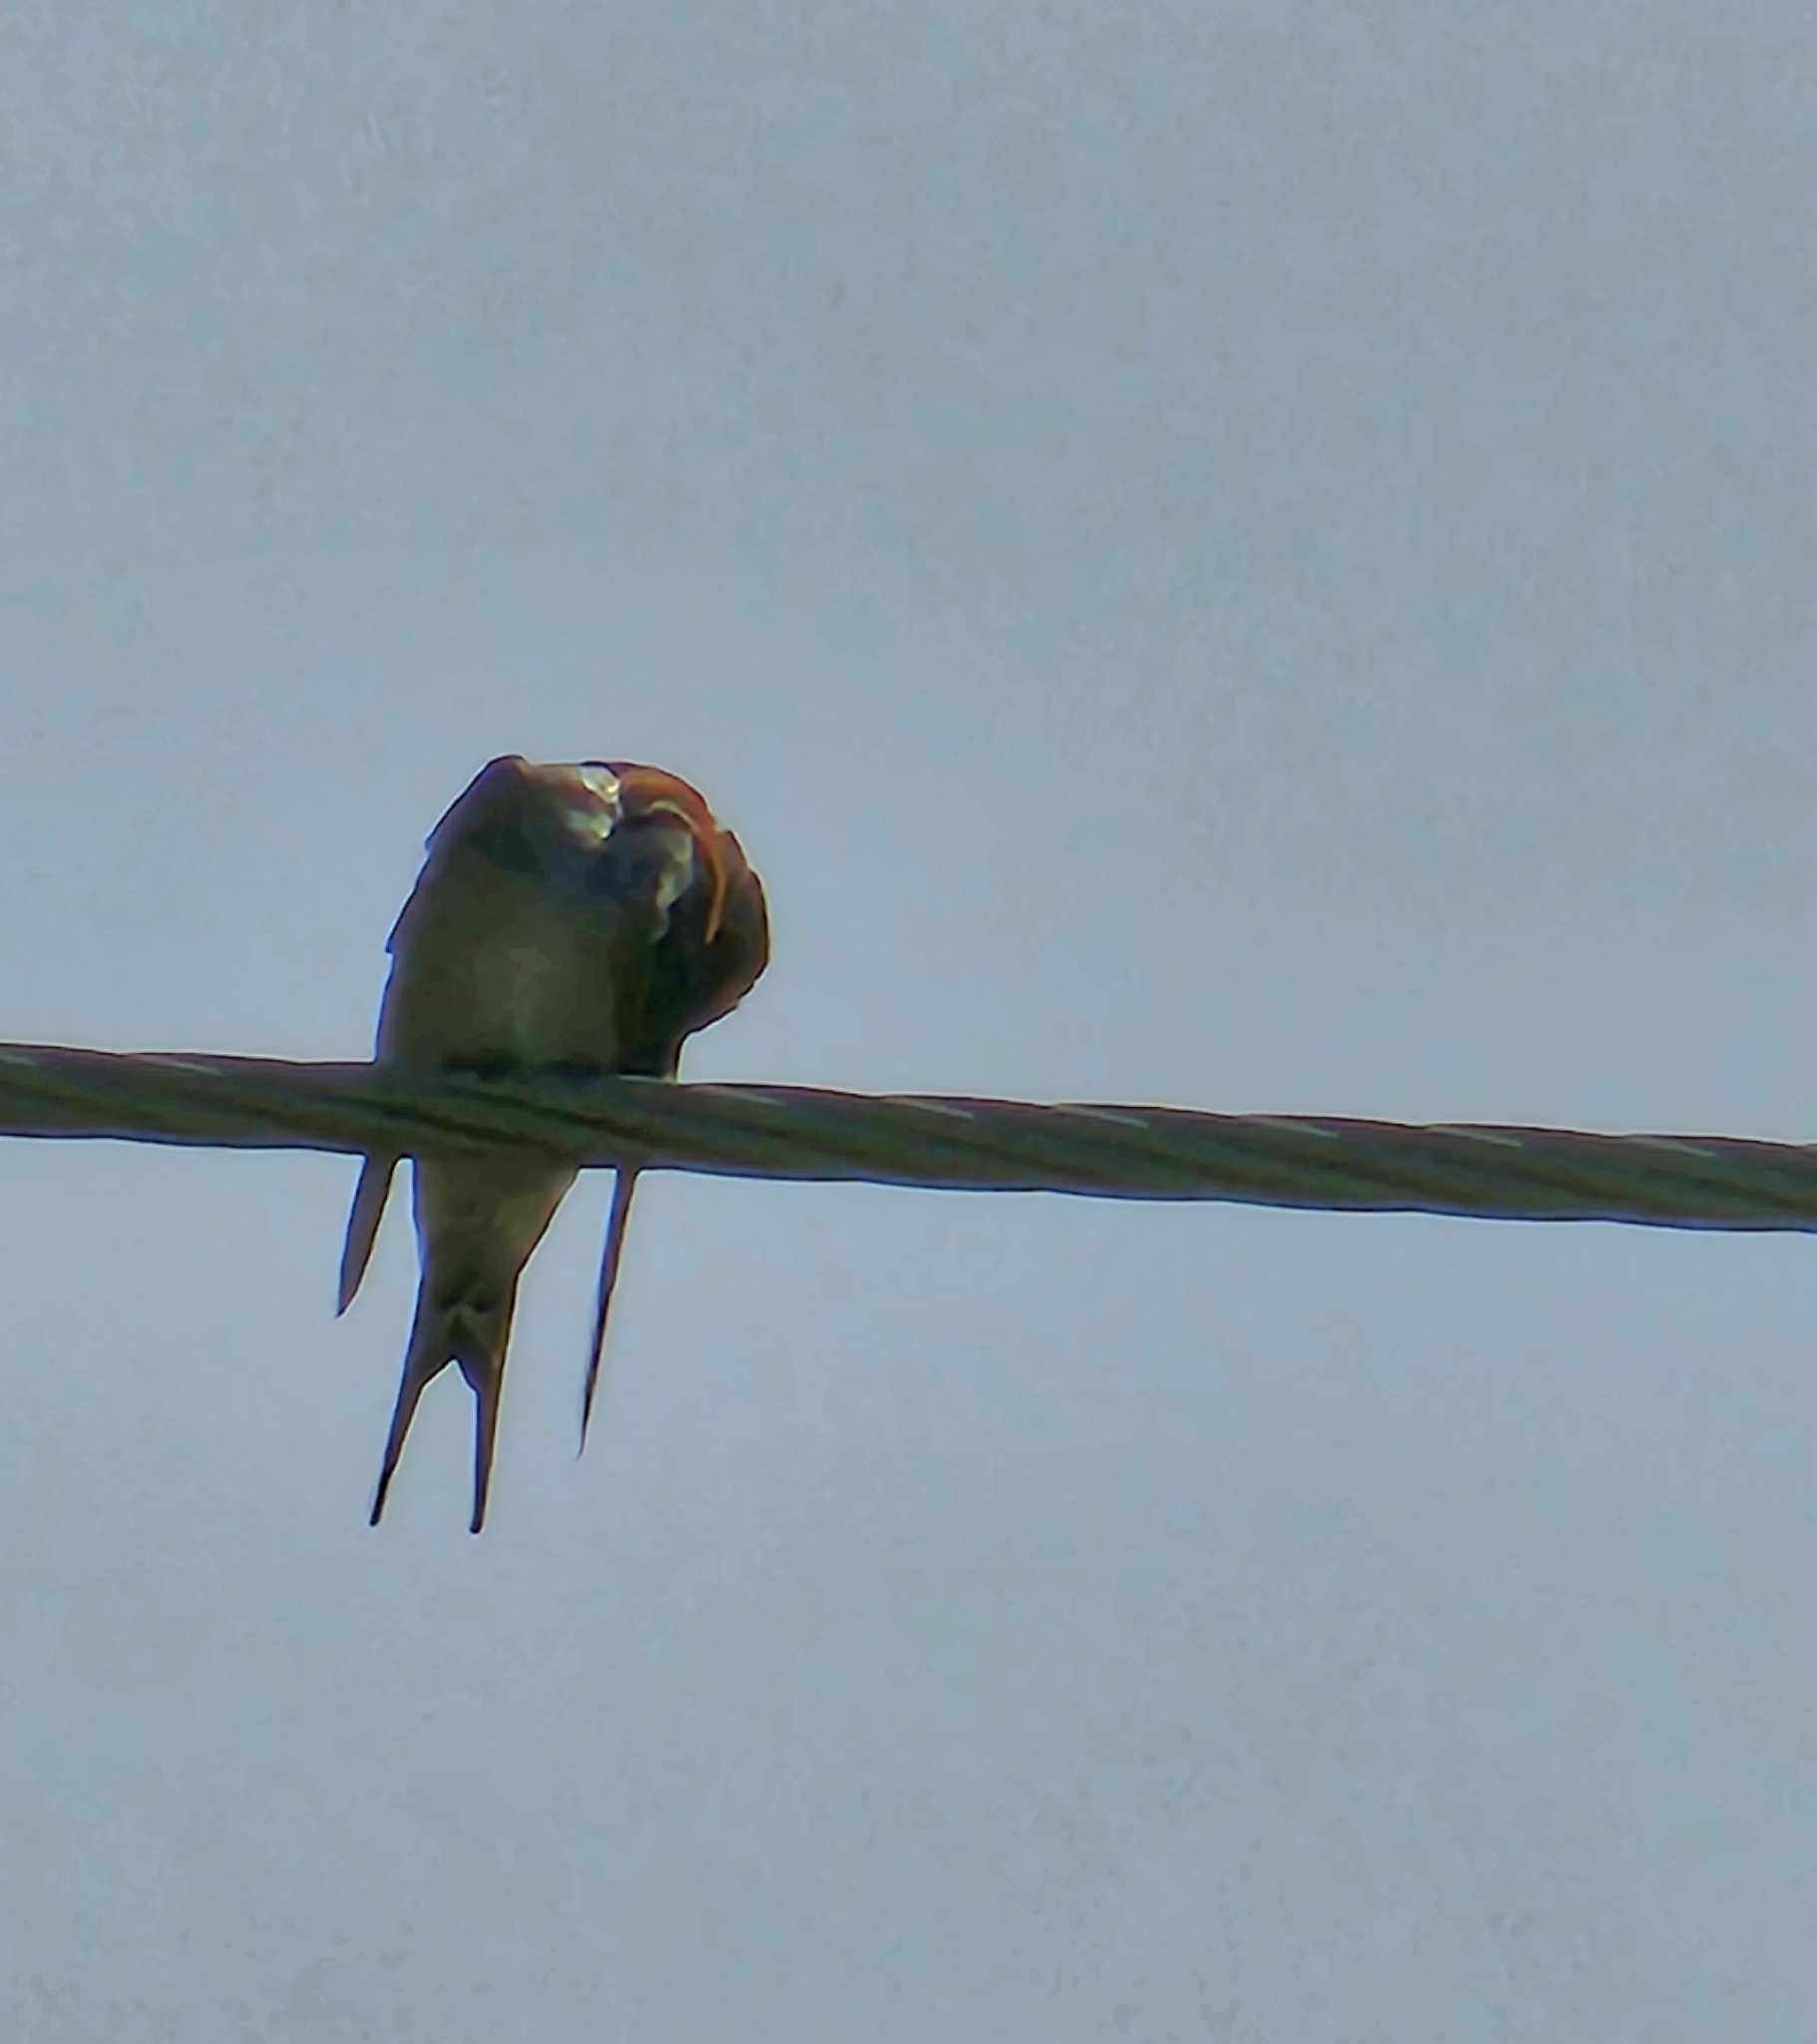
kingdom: Animalia
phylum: Chordata
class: Aves
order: Passeriformes
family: Hirundinidae
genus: Hirundo
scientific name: Hirundo neoxena
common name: Welcome swallow
